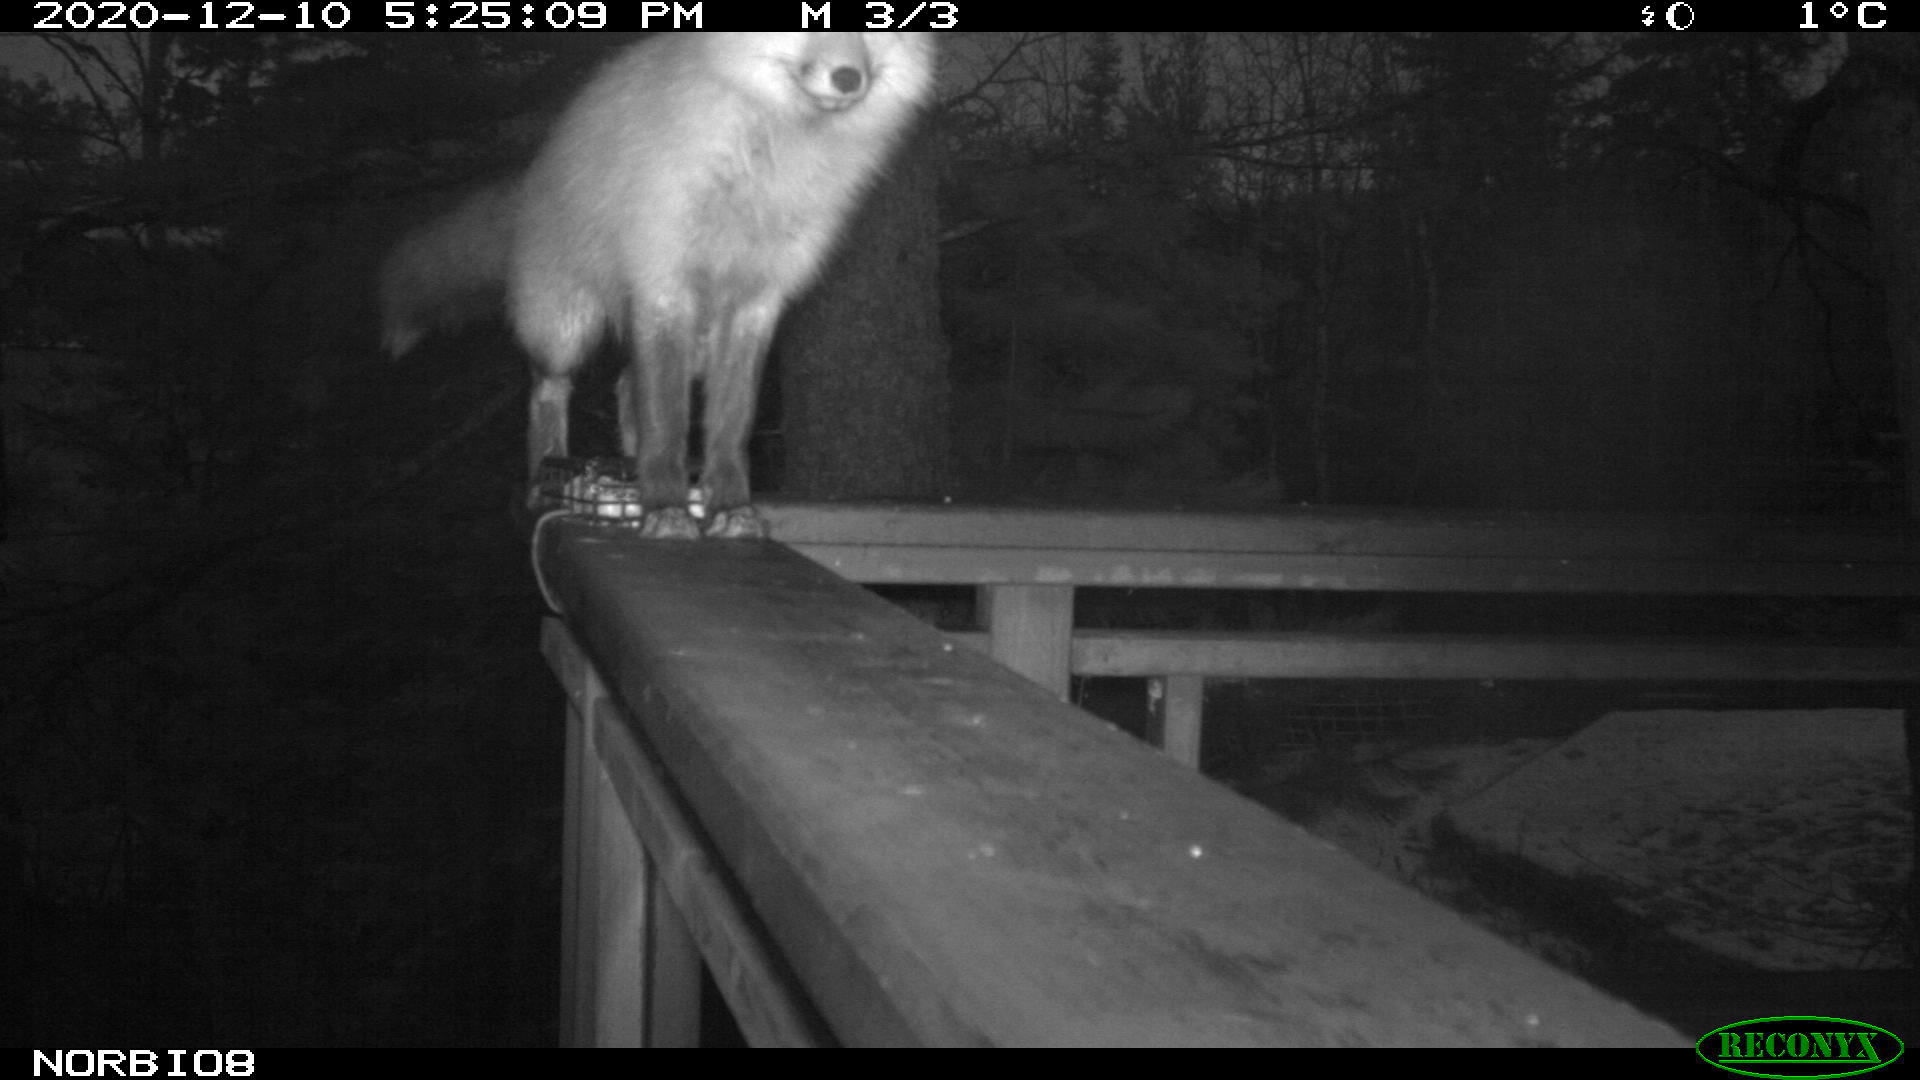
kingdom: Animalia
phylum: Chordata
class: Mammalia
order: Carnivora
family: Canidae
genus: Vulpes
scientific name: Vulpes vulpes
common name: Red fox
